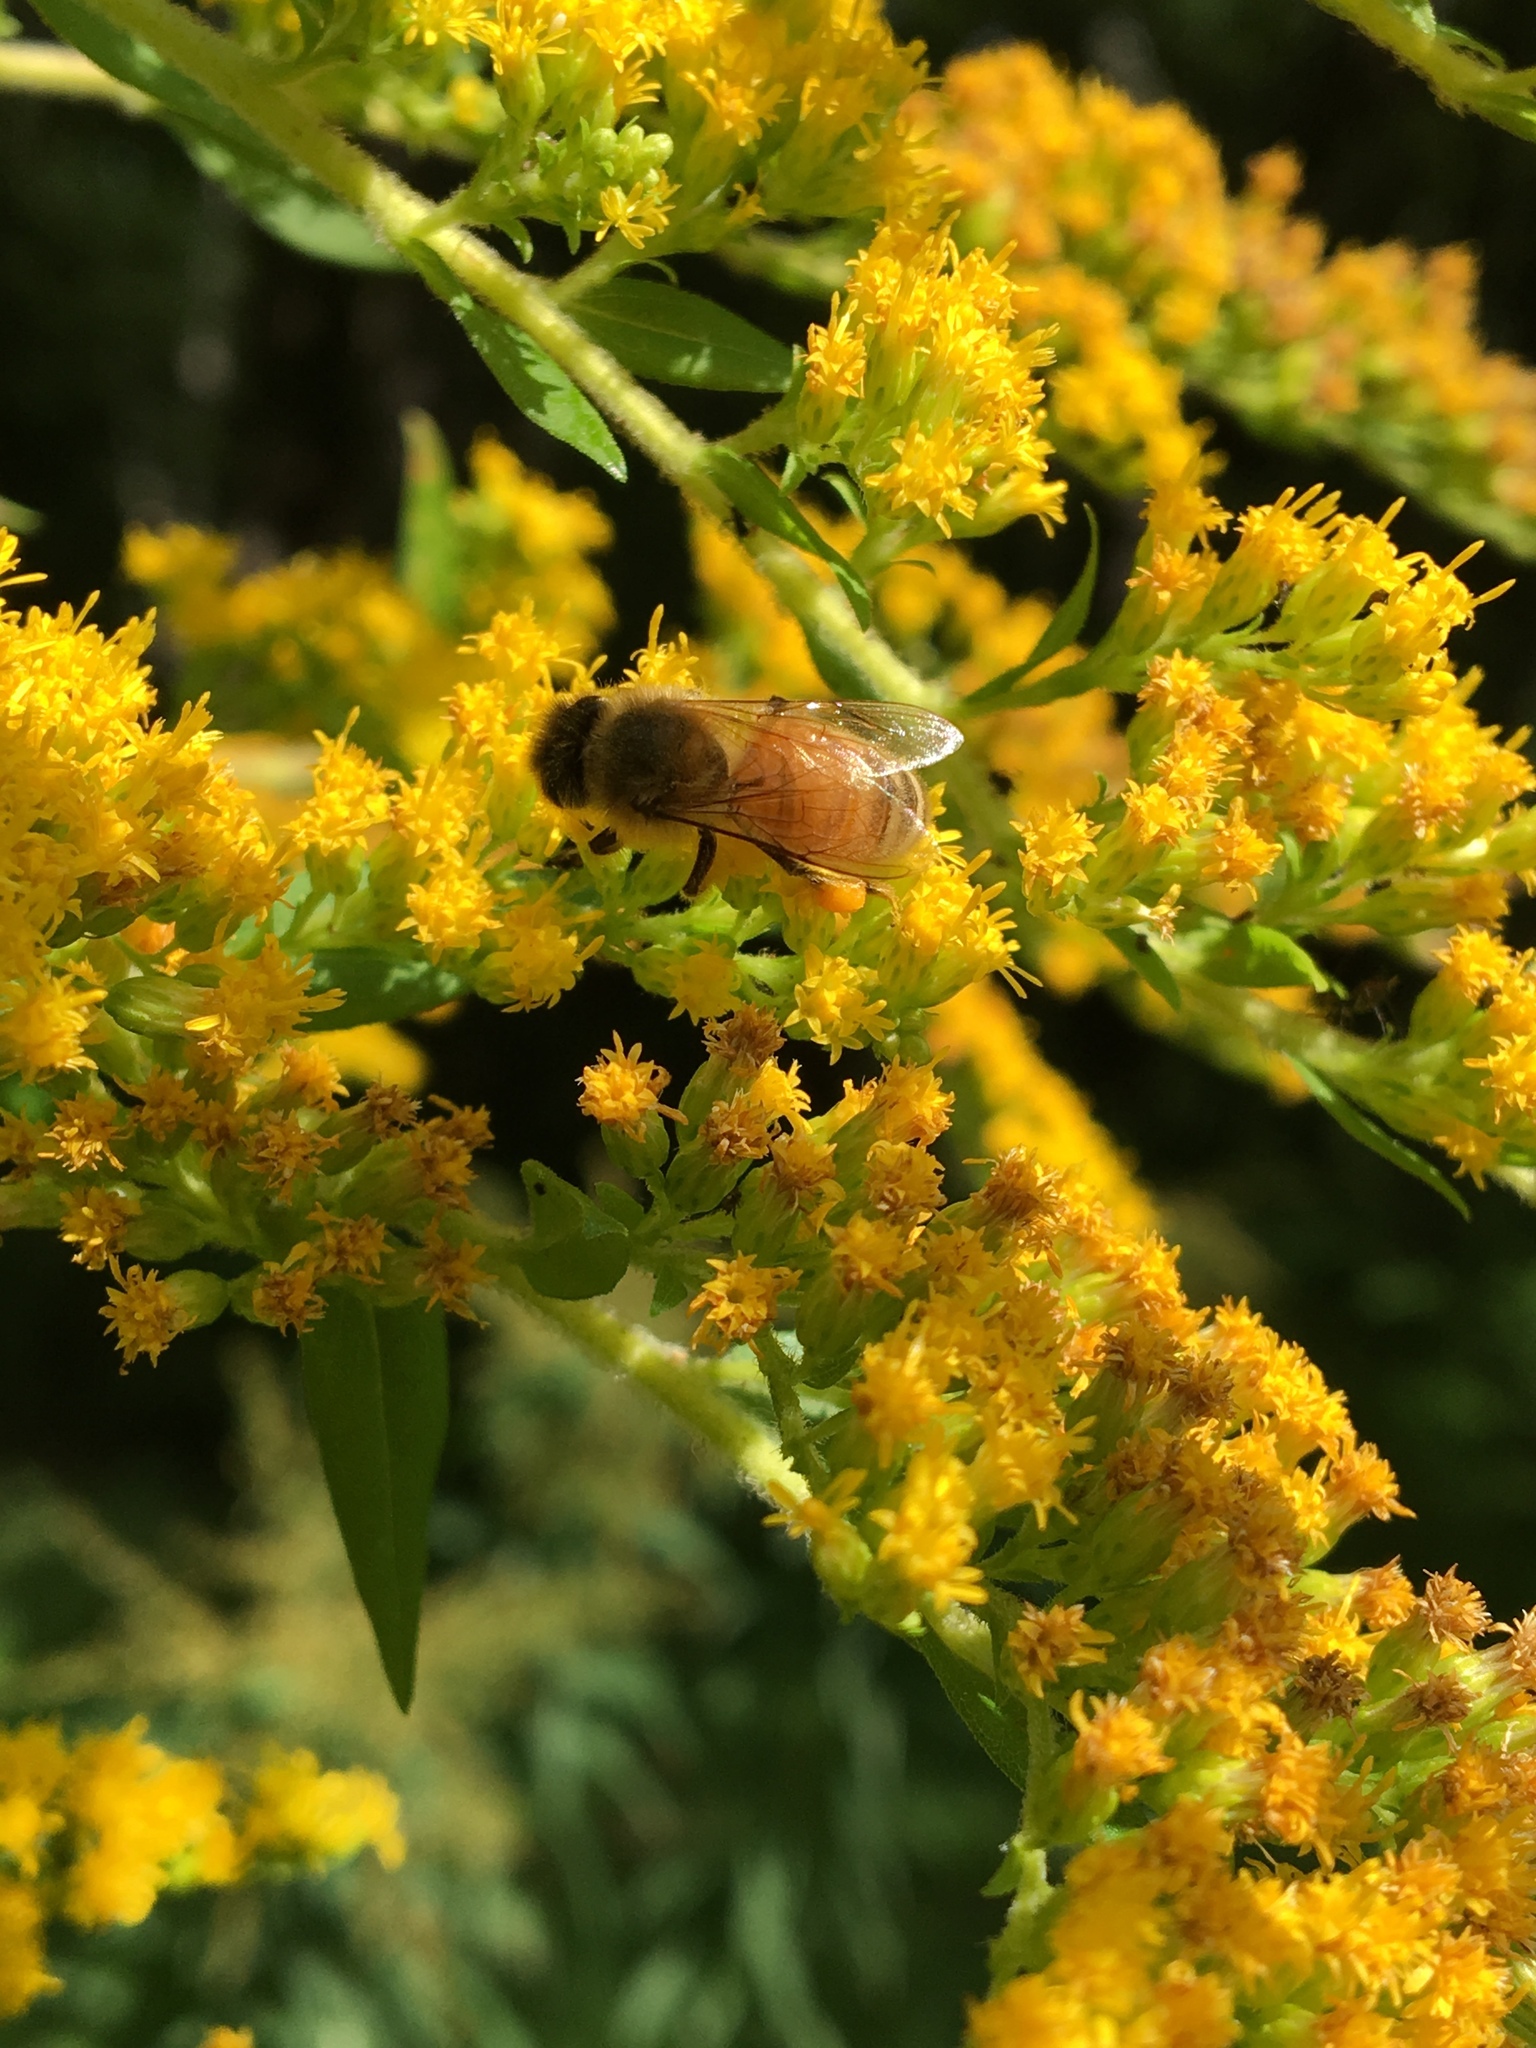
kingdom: Animalia
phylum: Arthropoda
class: Insecta
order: Hymenoptera
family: Apidae
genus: Apis
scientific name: Apis mellifera
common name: Honey bee
